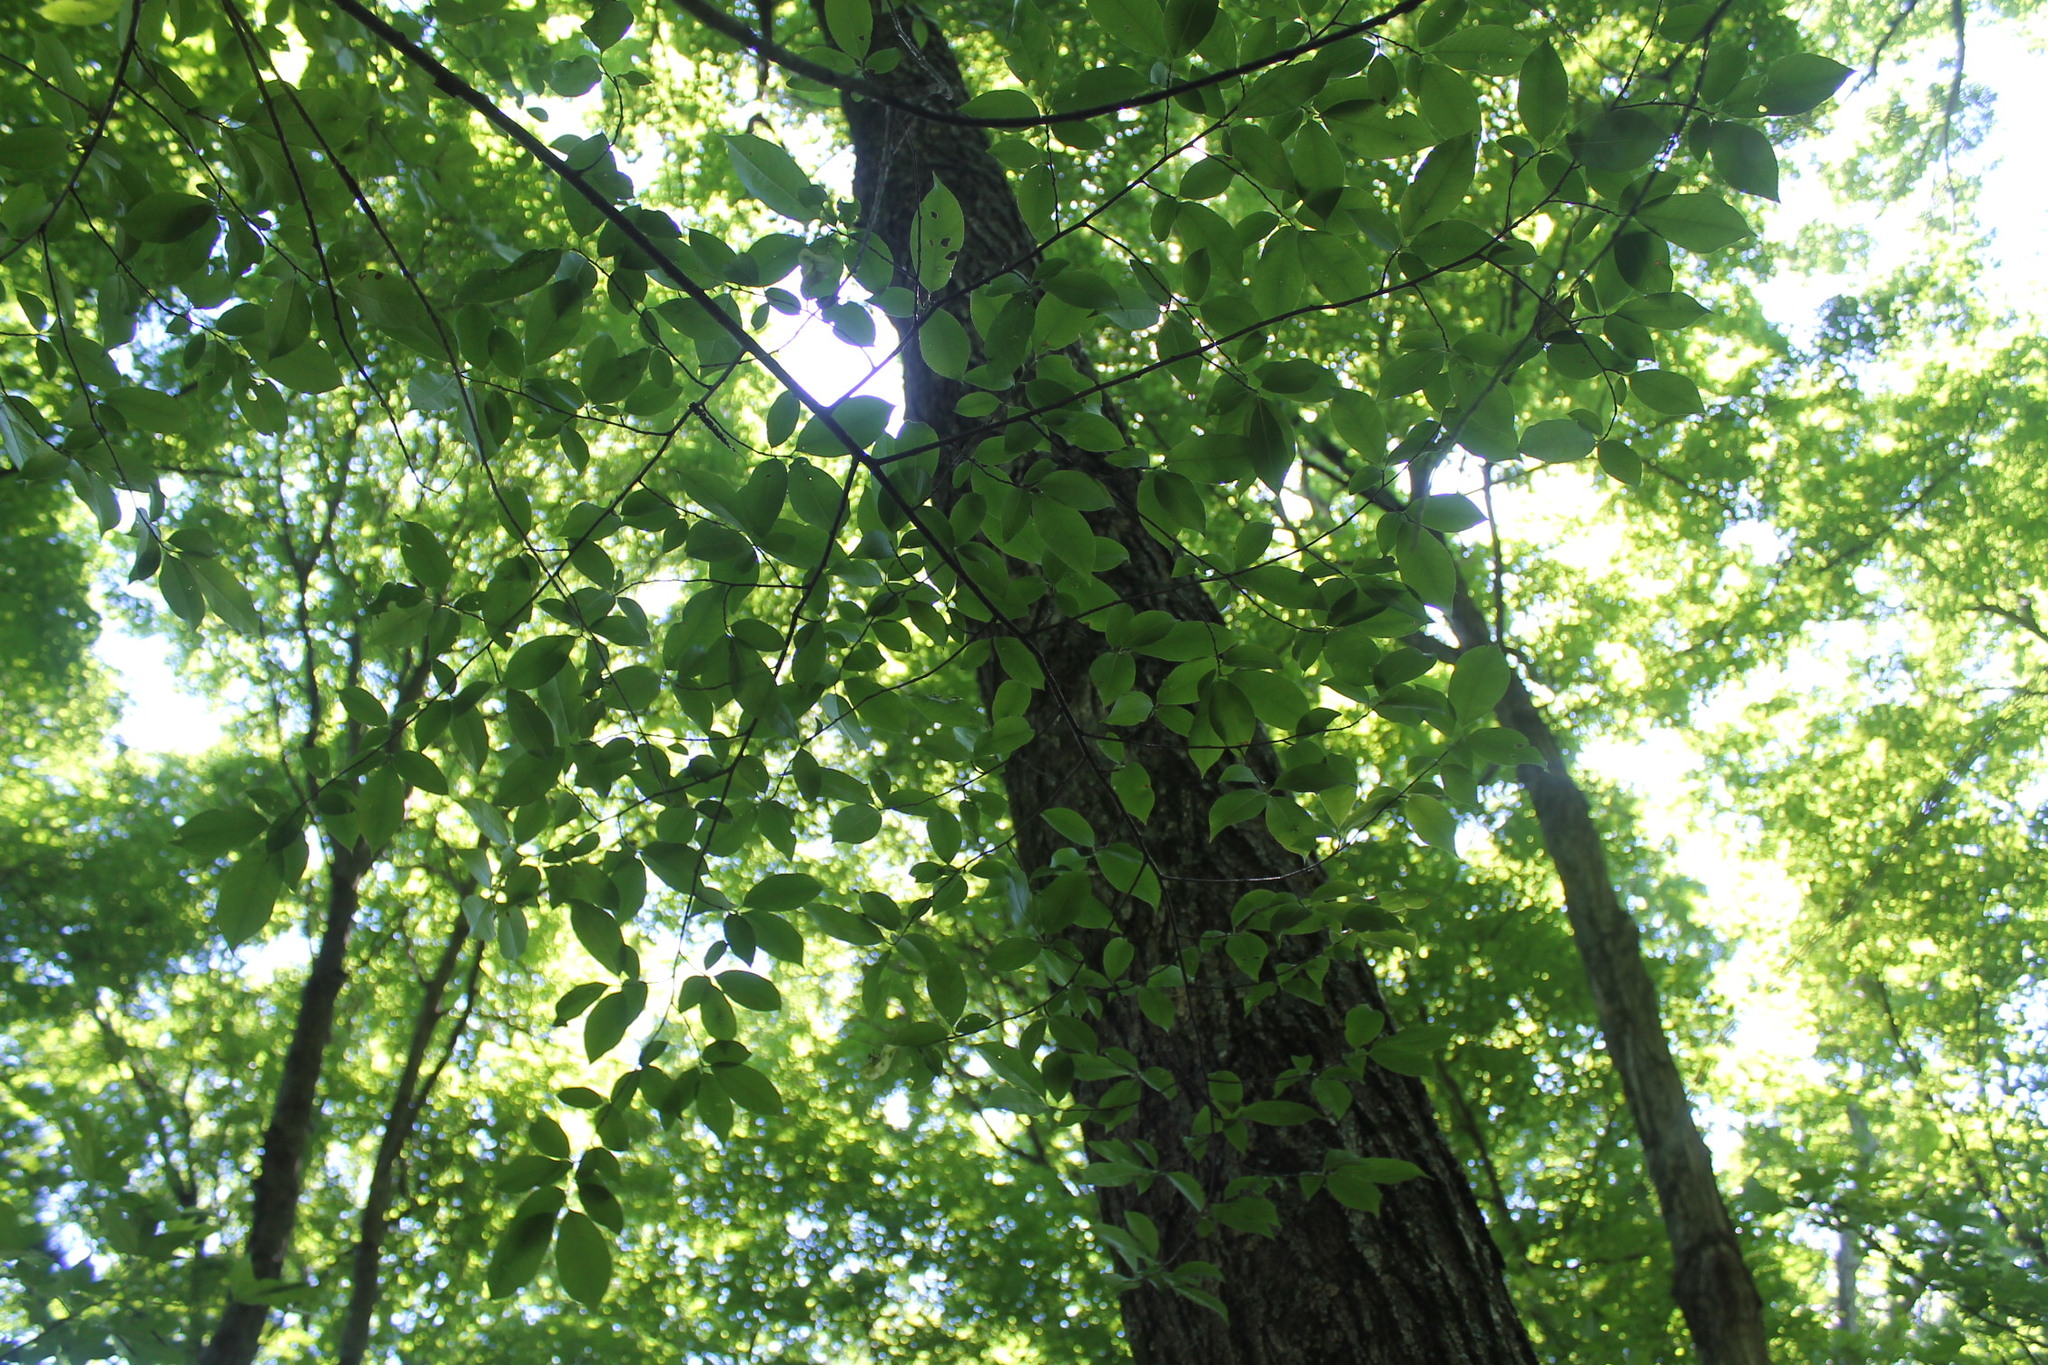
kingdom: Plantae
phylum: Tracheophyta
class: Magnoliopsida
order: Rosales
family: Rosaceae
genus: Prunus
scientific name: Prunus avium
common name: Sweet cherry
